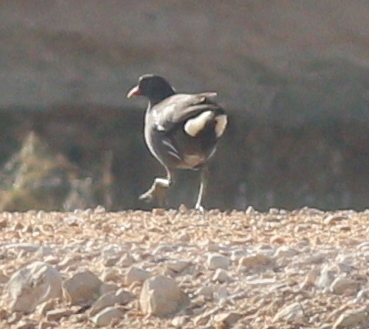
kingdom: Animalia
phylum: Chordata
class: Aves
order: Gruiformes
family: Rallidae
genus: Gallinula
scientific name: Gallinula chloropus
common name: Common moorhen
